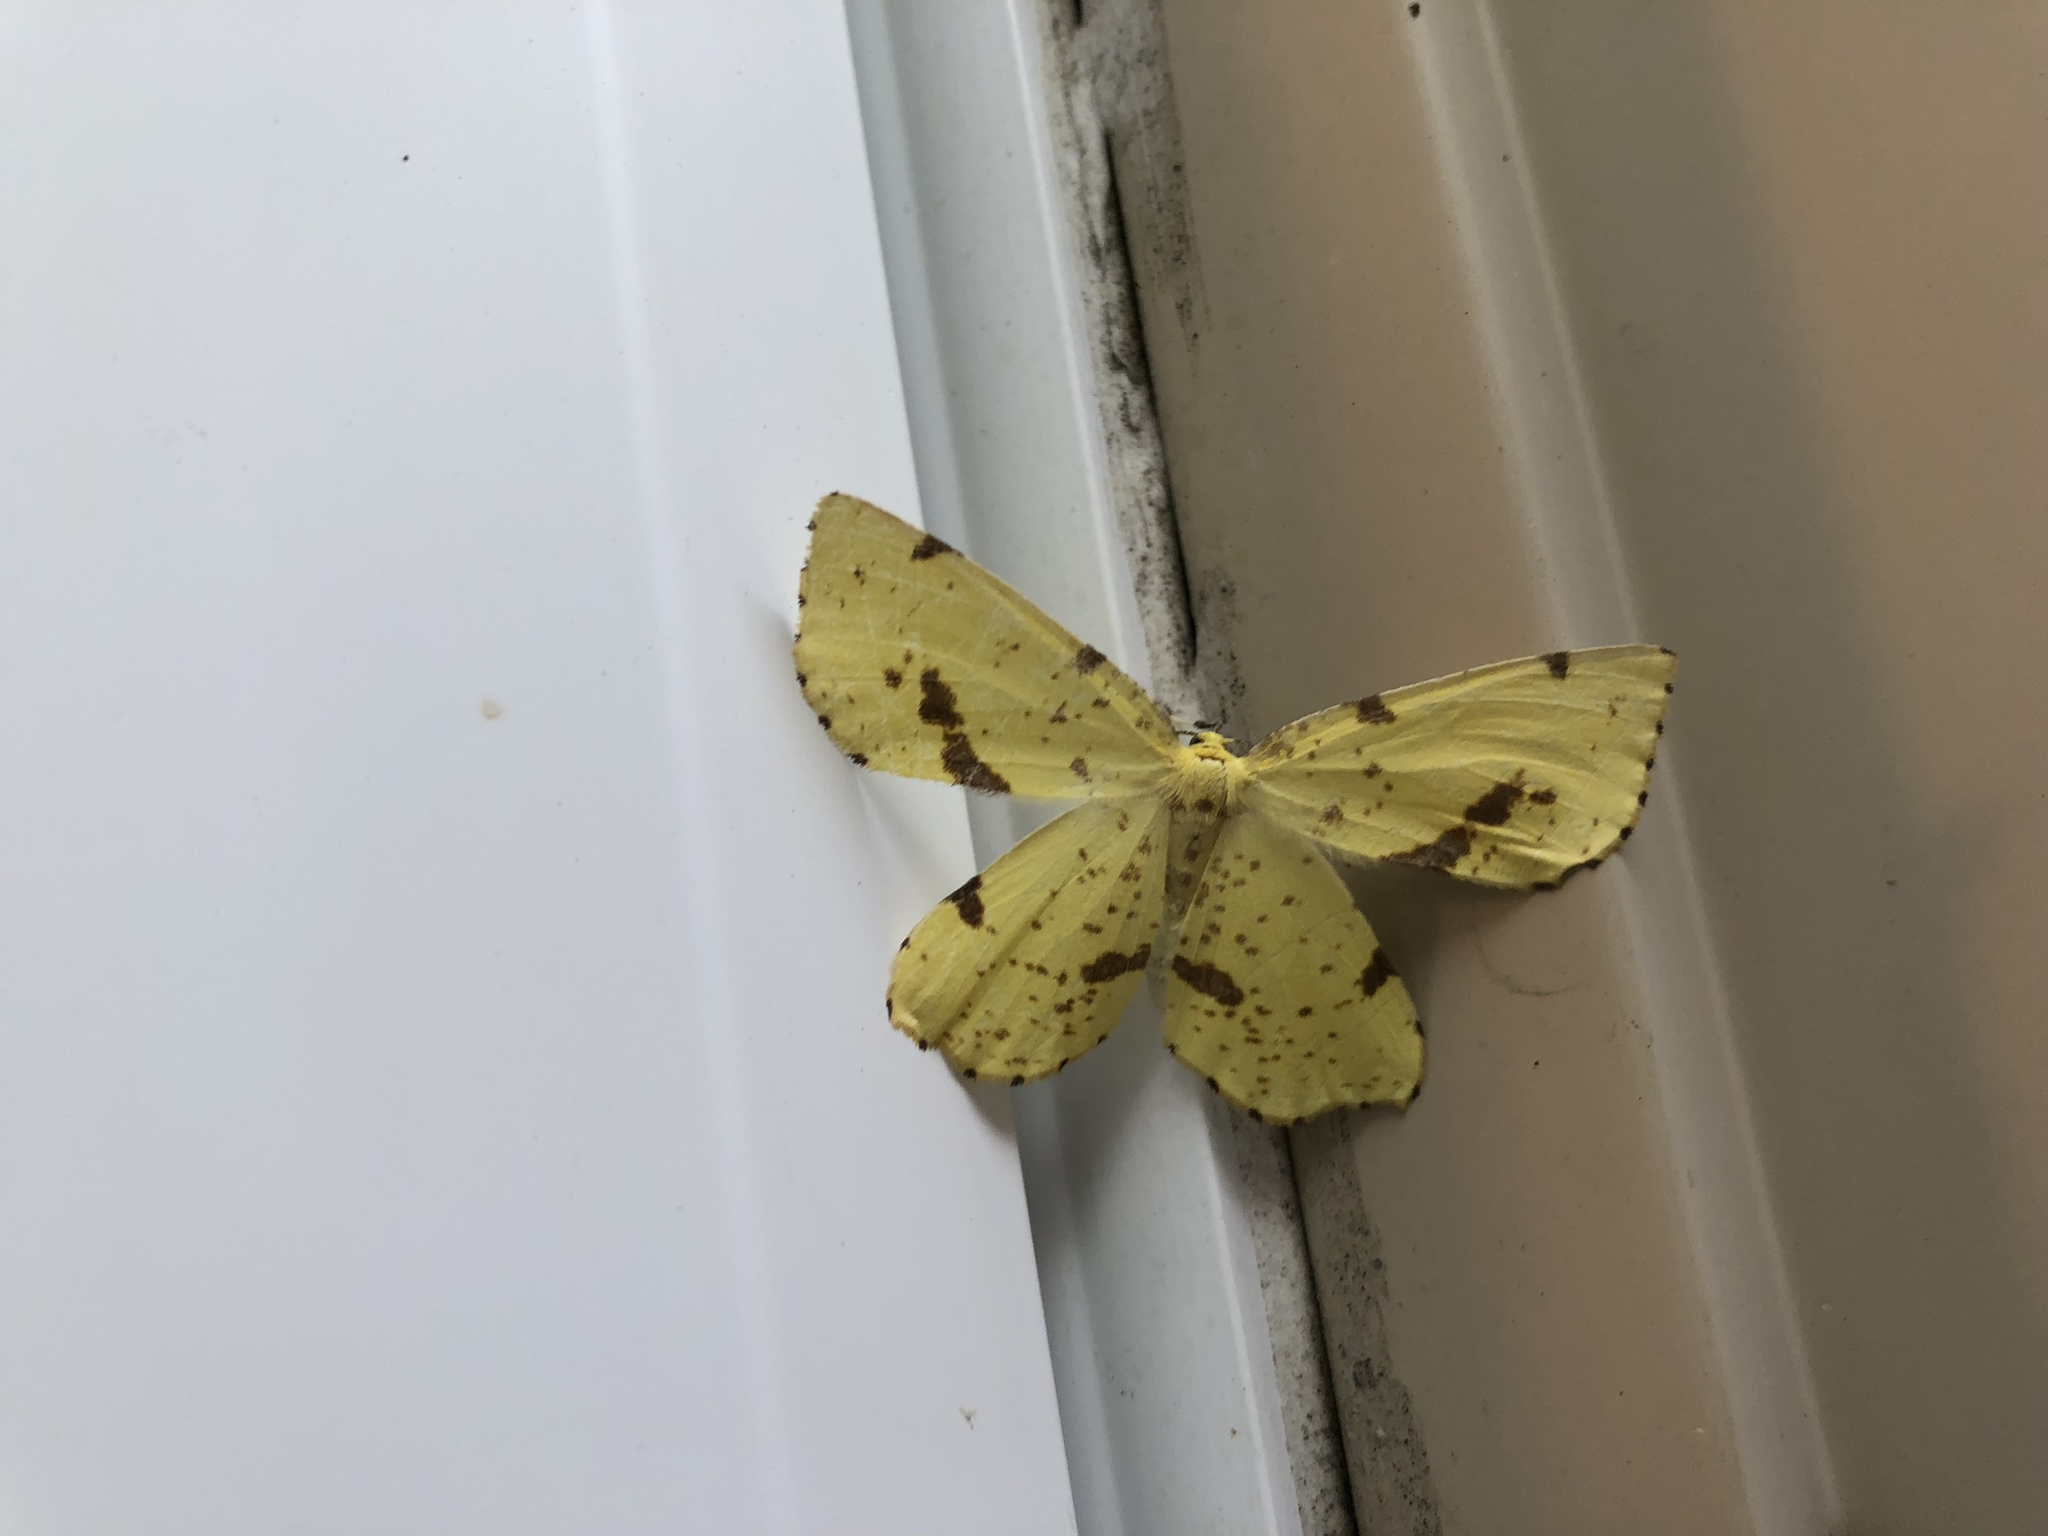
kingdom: Animalia
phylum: Arthropoda
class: Insecta
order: Lepidoptera
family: Geometridae
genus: Xanthotype
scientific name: Xanthotype
